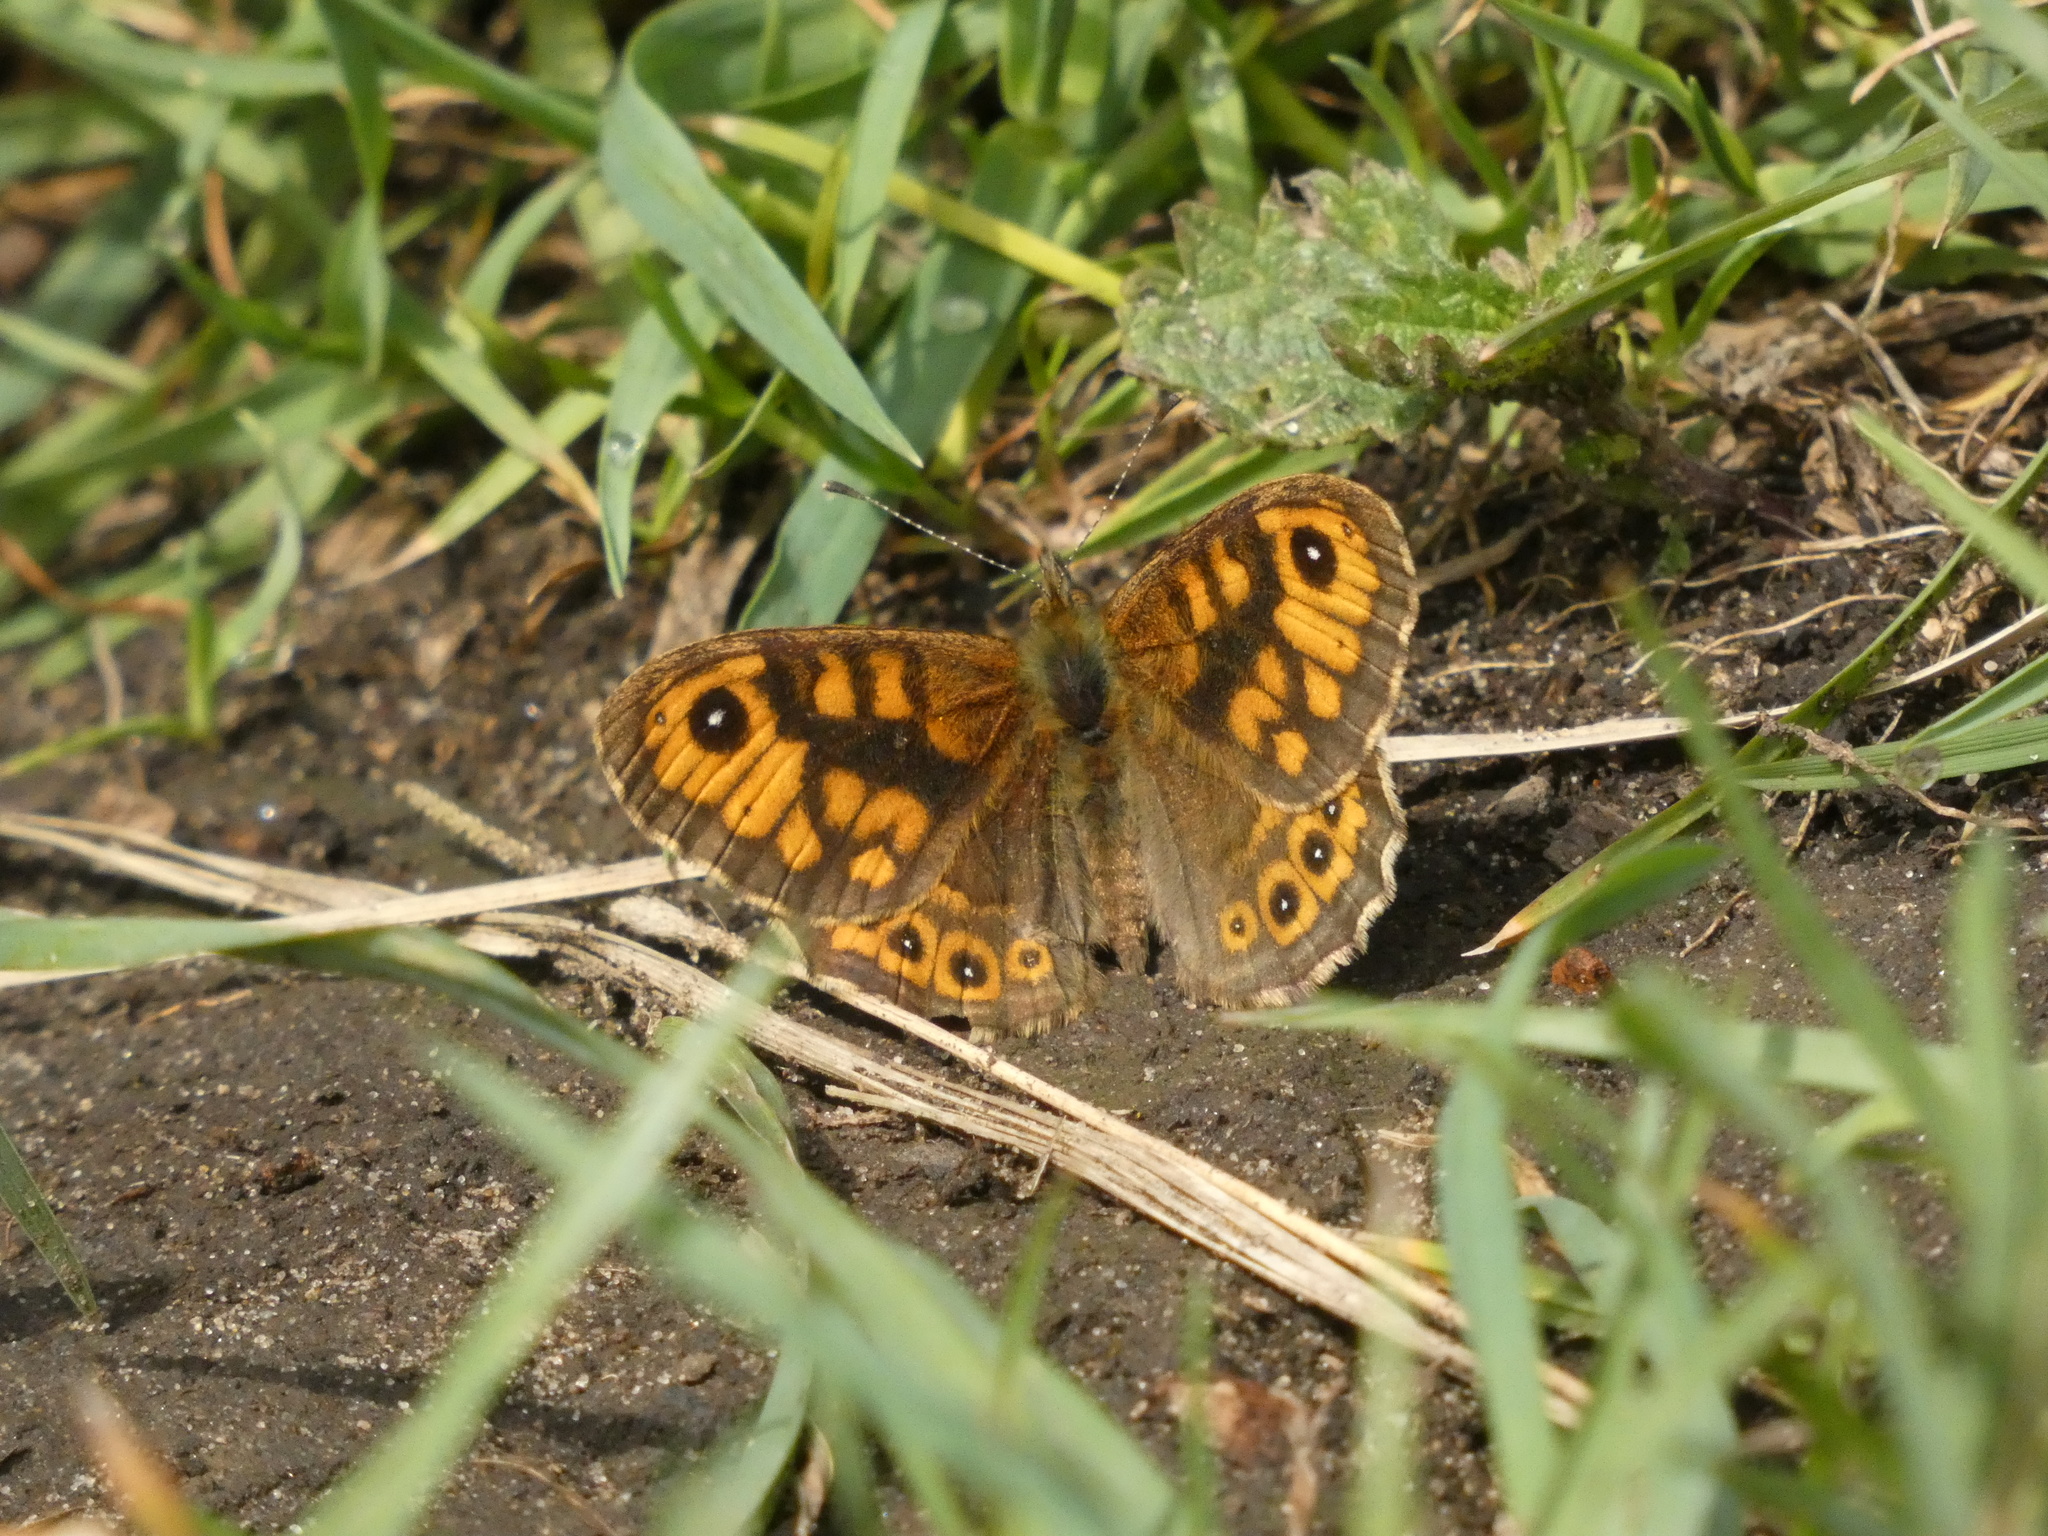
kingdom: Animalia
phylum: Arthropoda
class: Insecta
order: Lepidoptera
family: Nymphalidae
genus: Pararge
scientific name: Pararge Lasiommata megera
